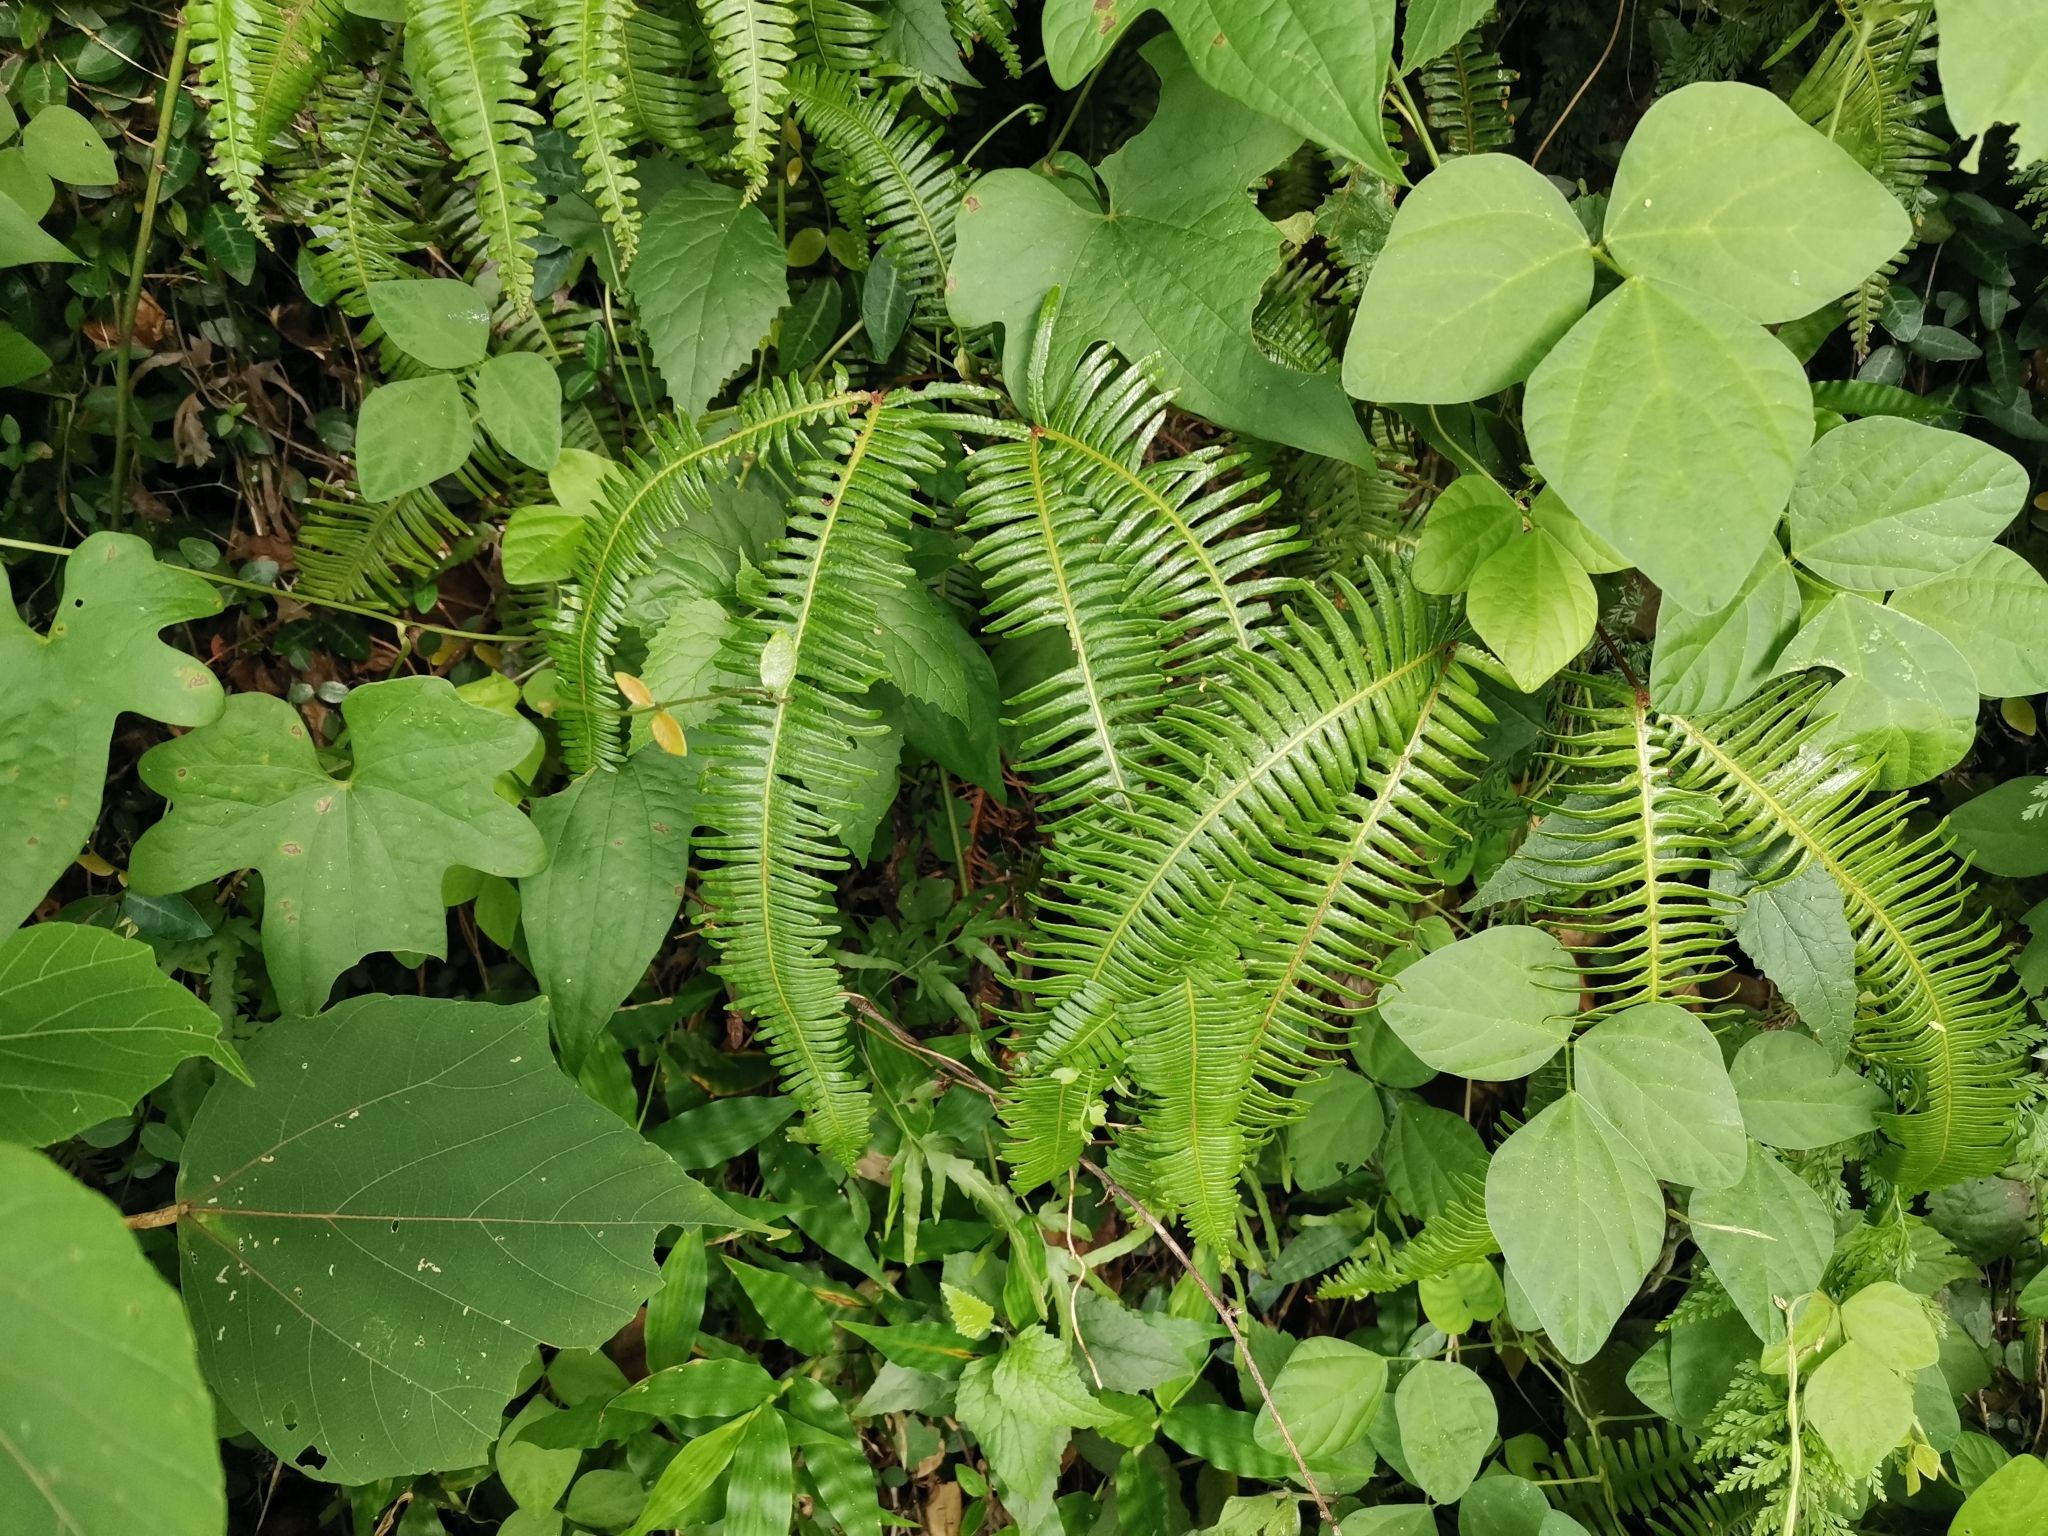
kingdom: Plantae
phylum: Tracheophyta
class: Polypodiopsida
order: Gleicheniales
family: Gleicheniaceae
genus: Dicranopteris
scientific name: Dicranopteris linearis
